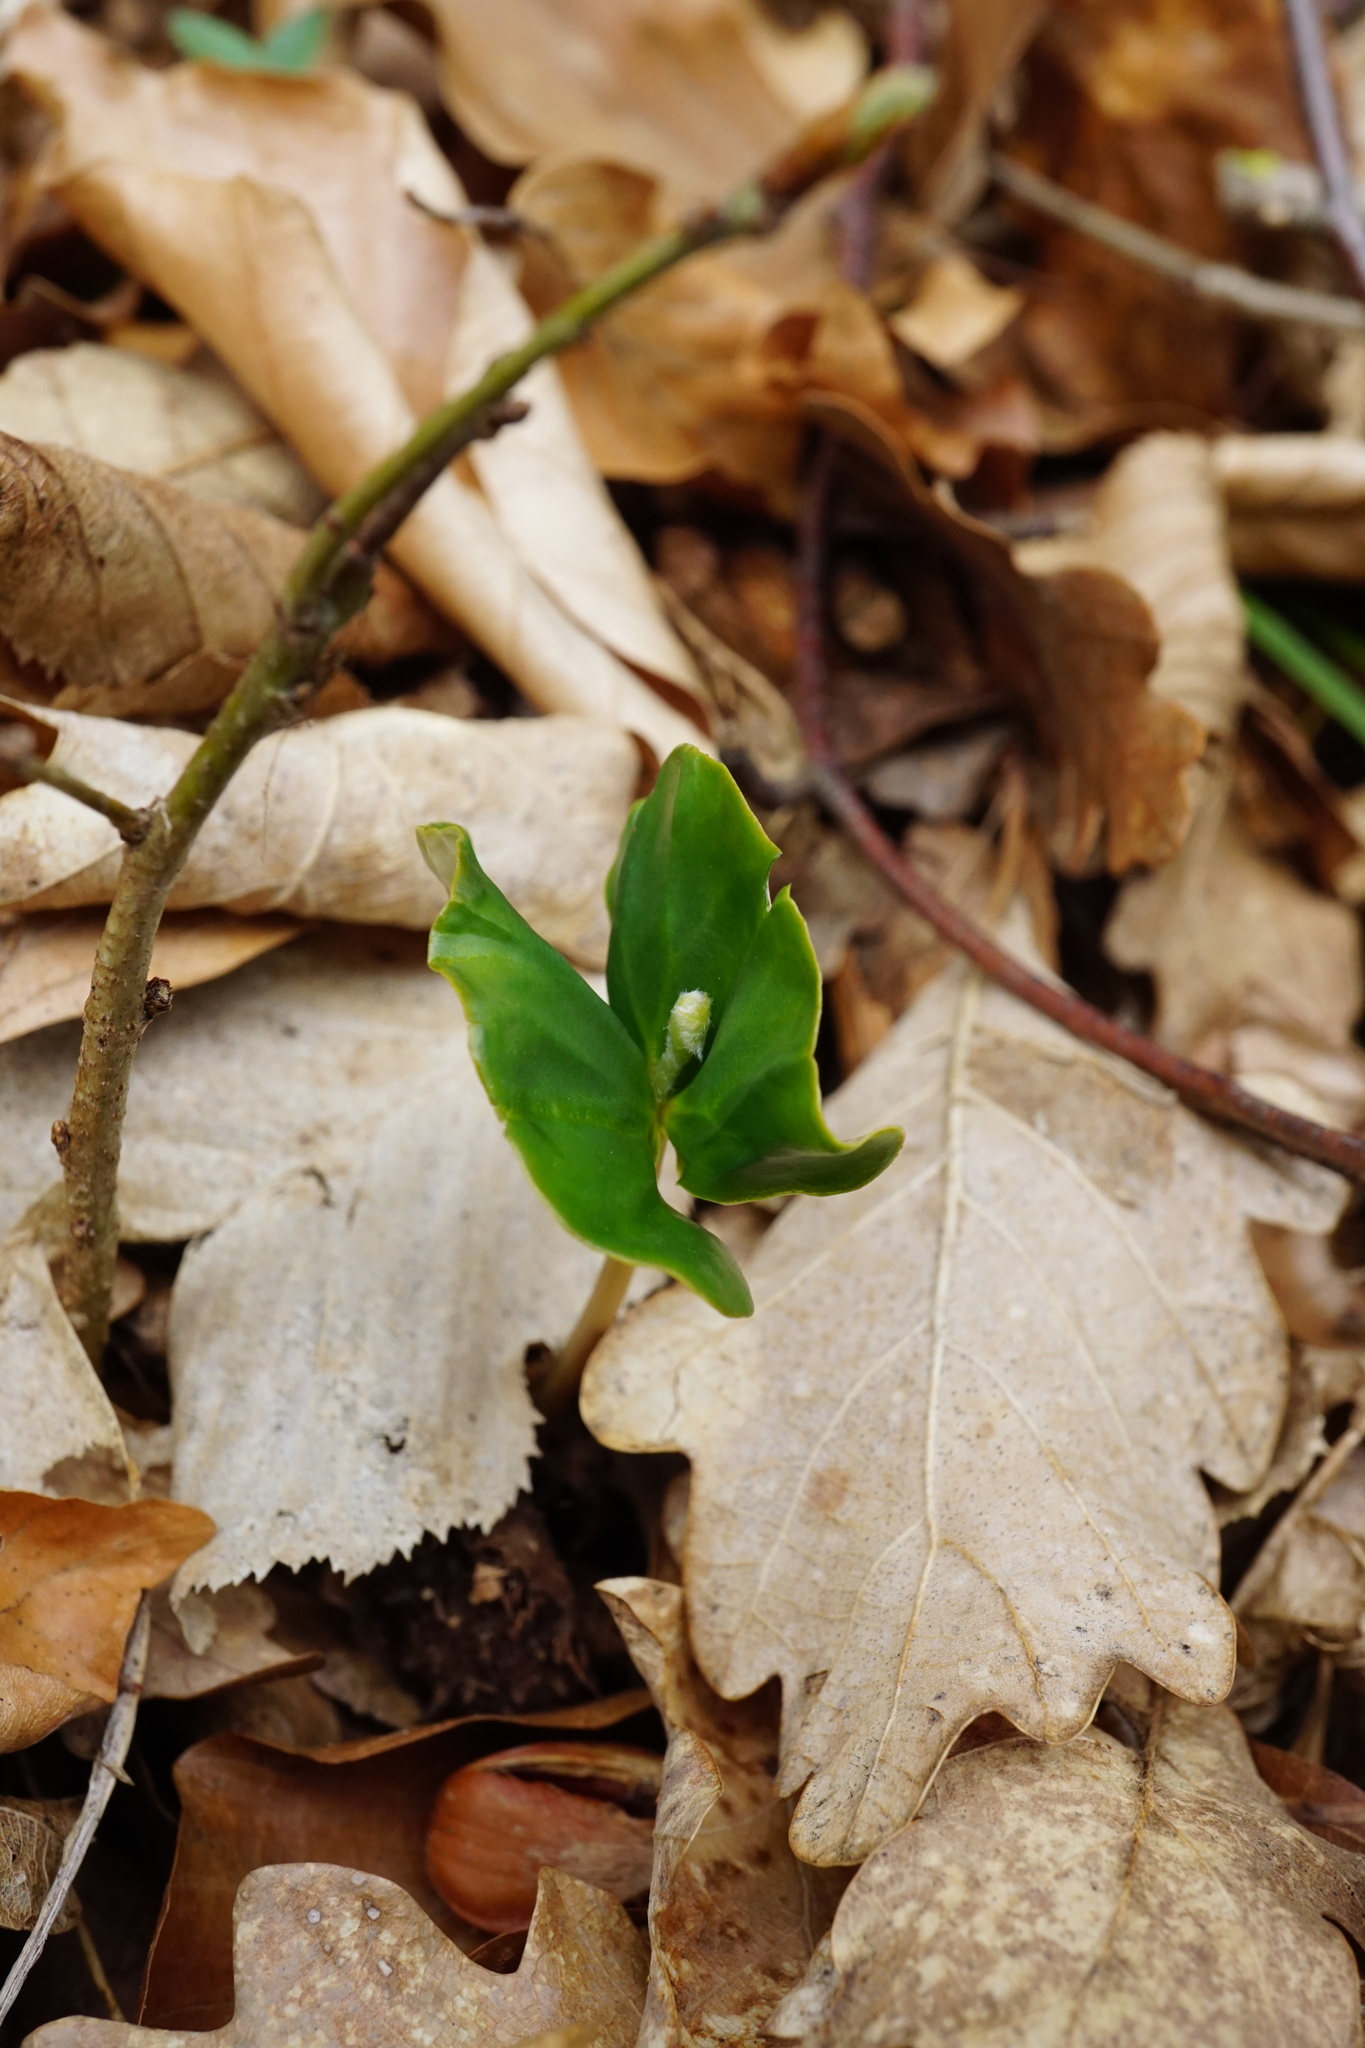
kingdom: Plantae
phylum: Tracheophyta
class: Magnoliopsida
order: Fagales
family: Fagaceae
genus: Fagus
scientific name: Fagus sylvatica
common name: Beech
